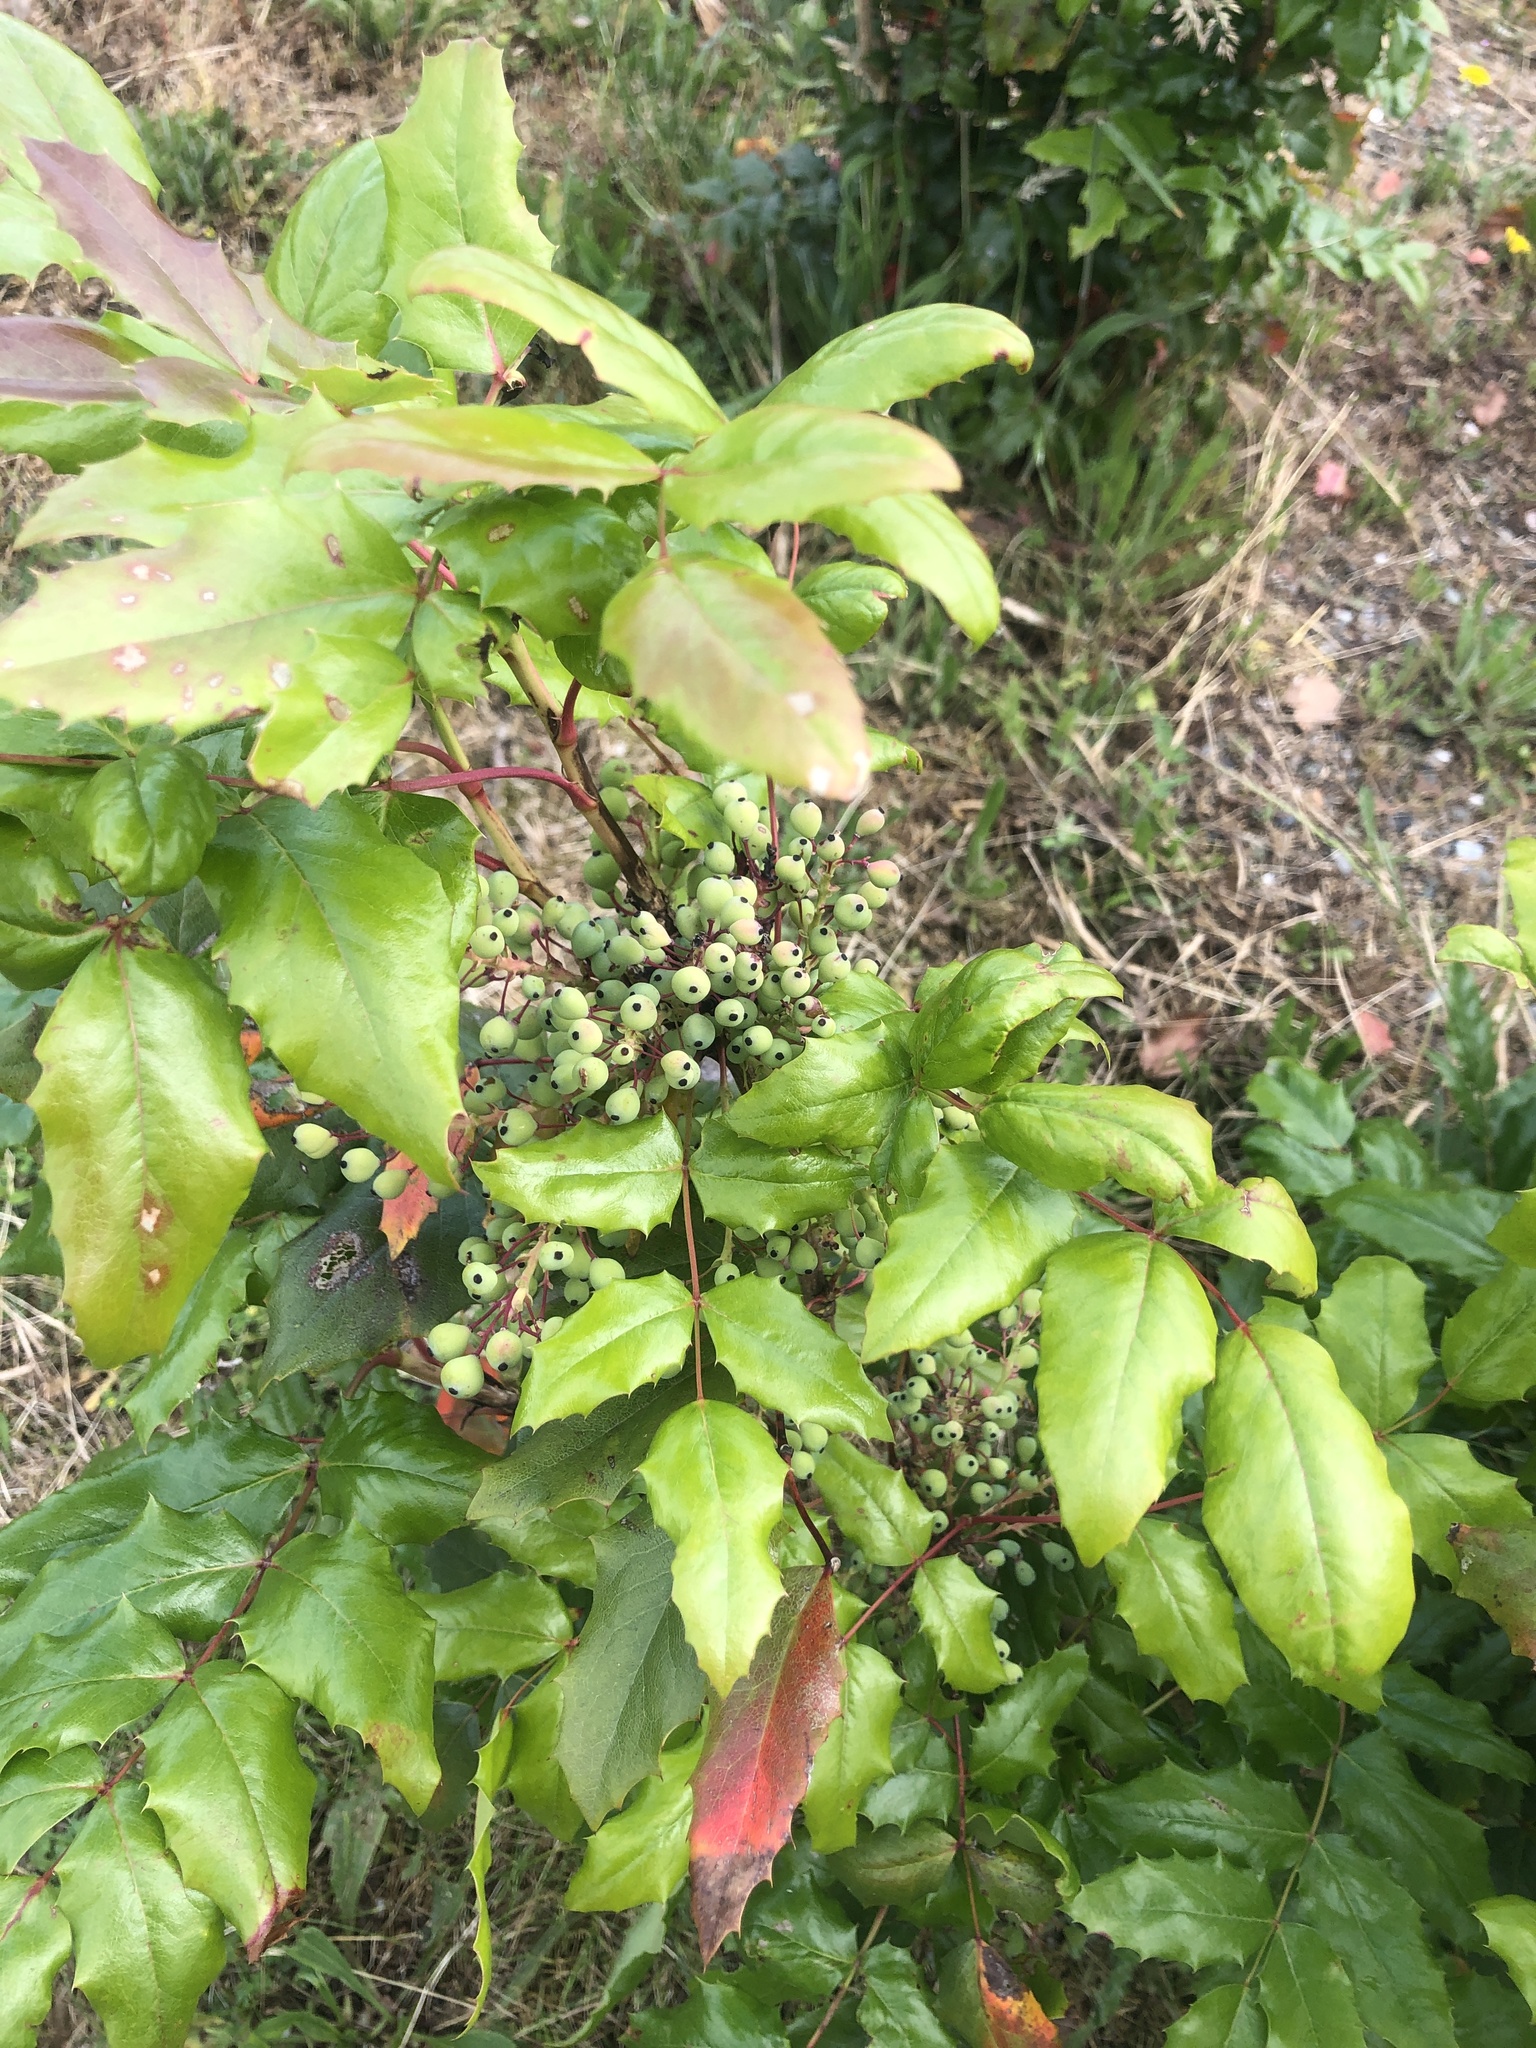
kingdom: Plantae
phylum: Tracheophyta
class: Magnoliopsida
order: Ranunculales
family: Berberidaceae
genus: Mahonia
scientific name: Mahonia aquifolium
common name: Oregon-grape
